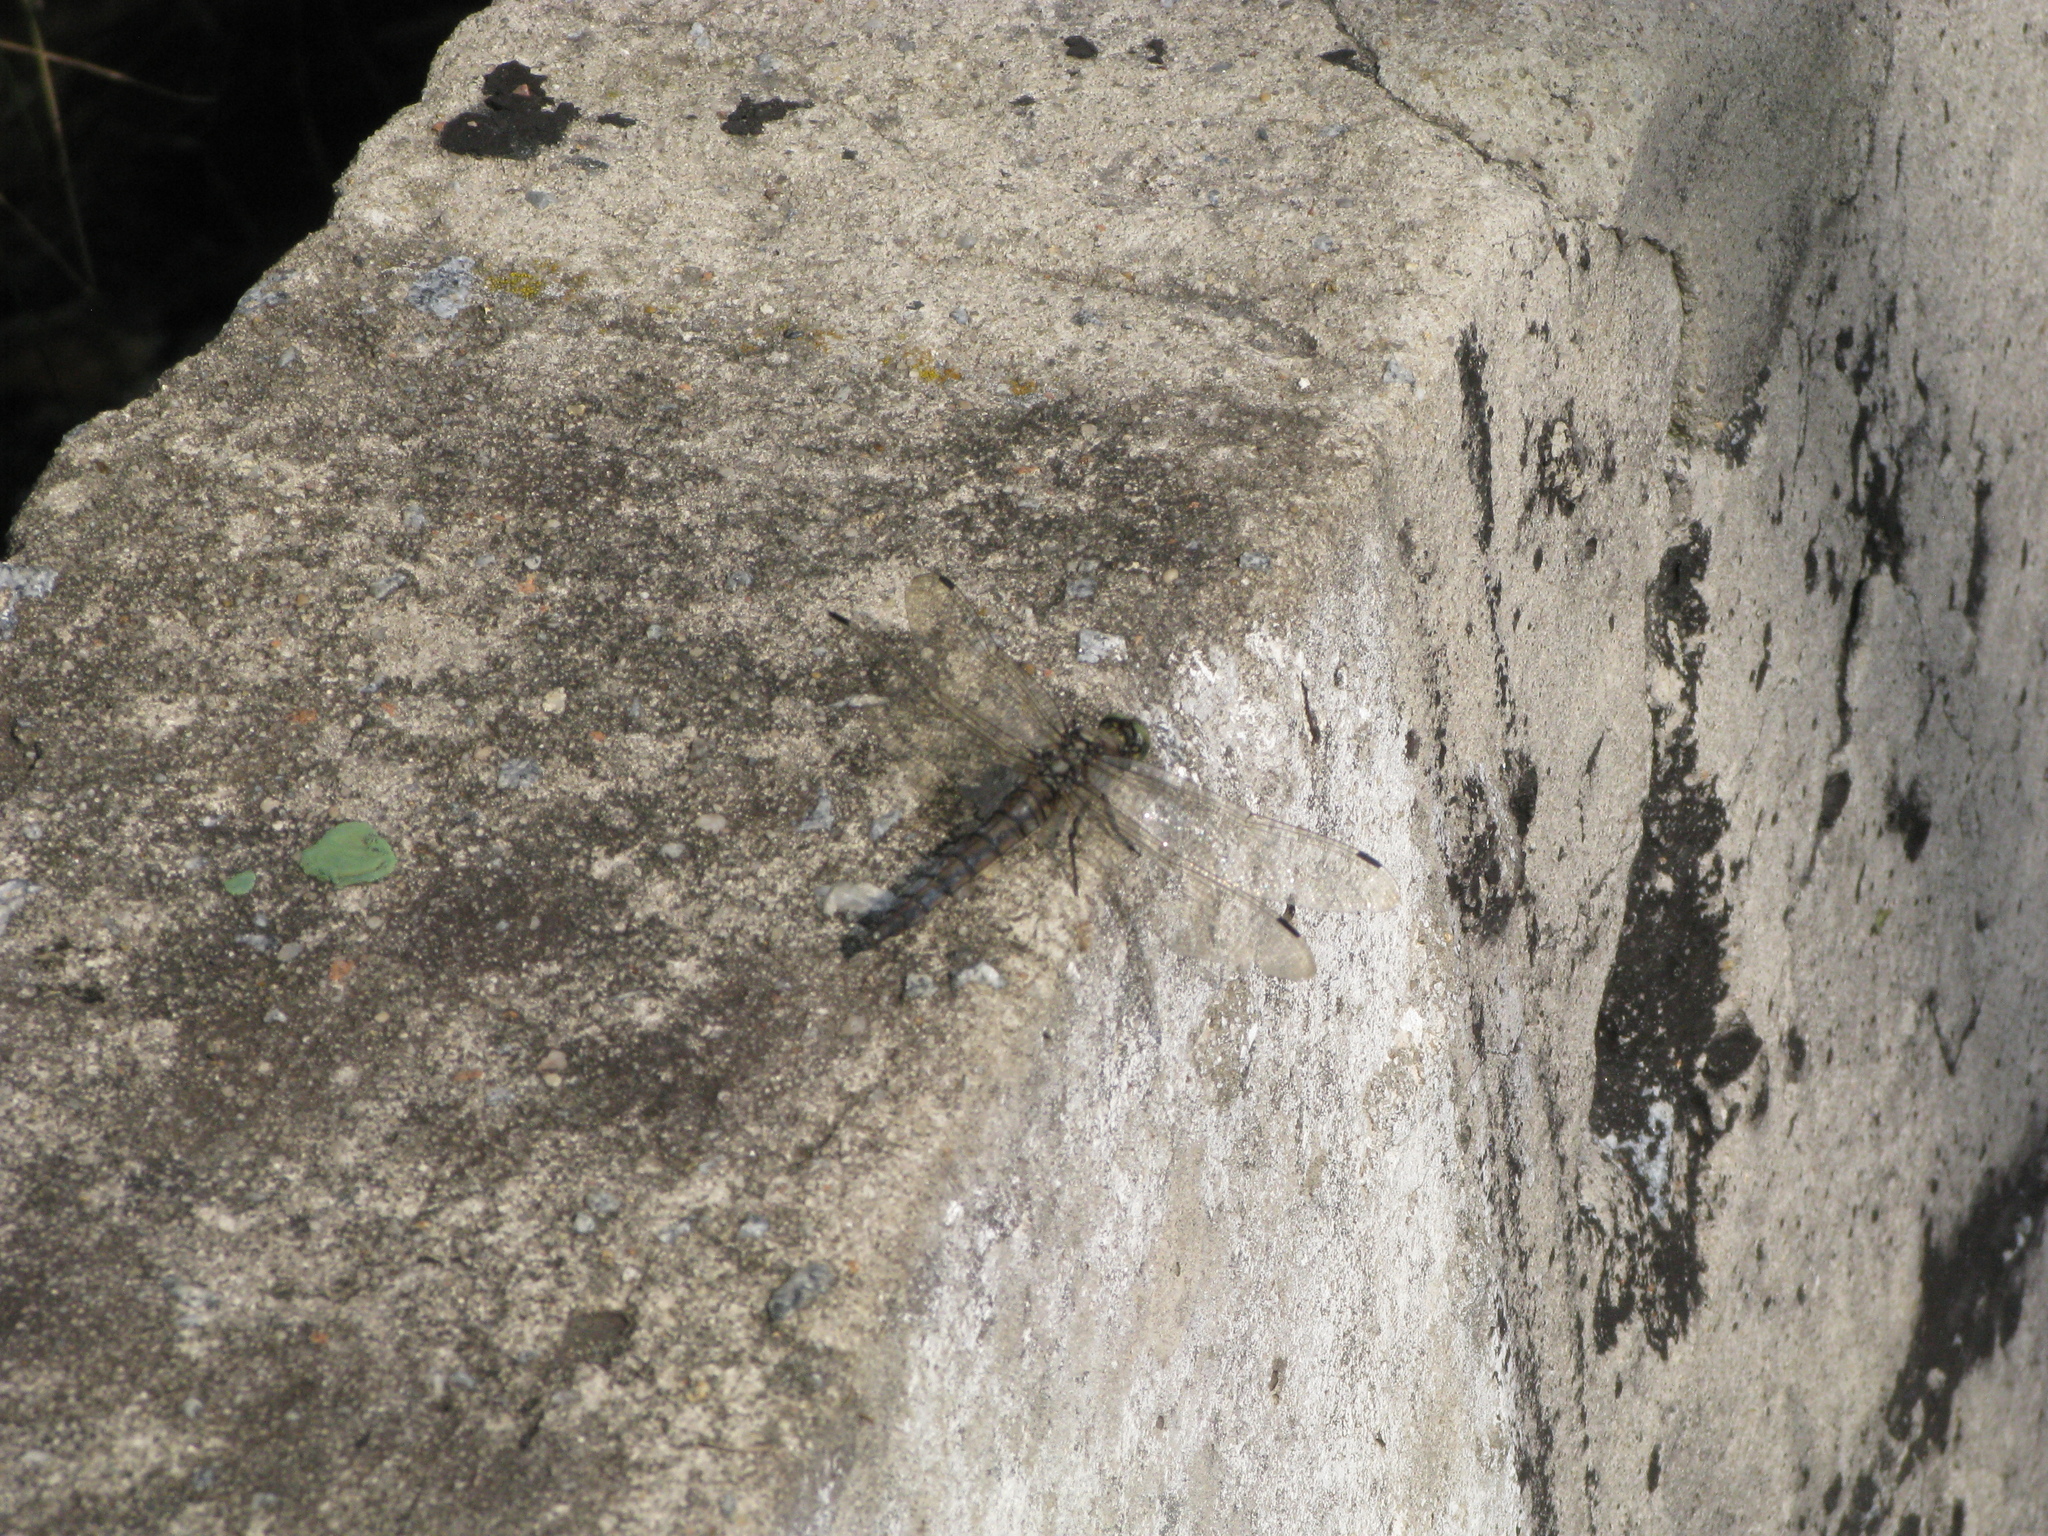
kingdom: Animalia
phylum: Arthropoda
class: Insecta
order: Odonata
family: Libellulidae
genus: Orthetrum
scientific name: Orthetrum cancellatum
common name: Black-tailed skimmer
